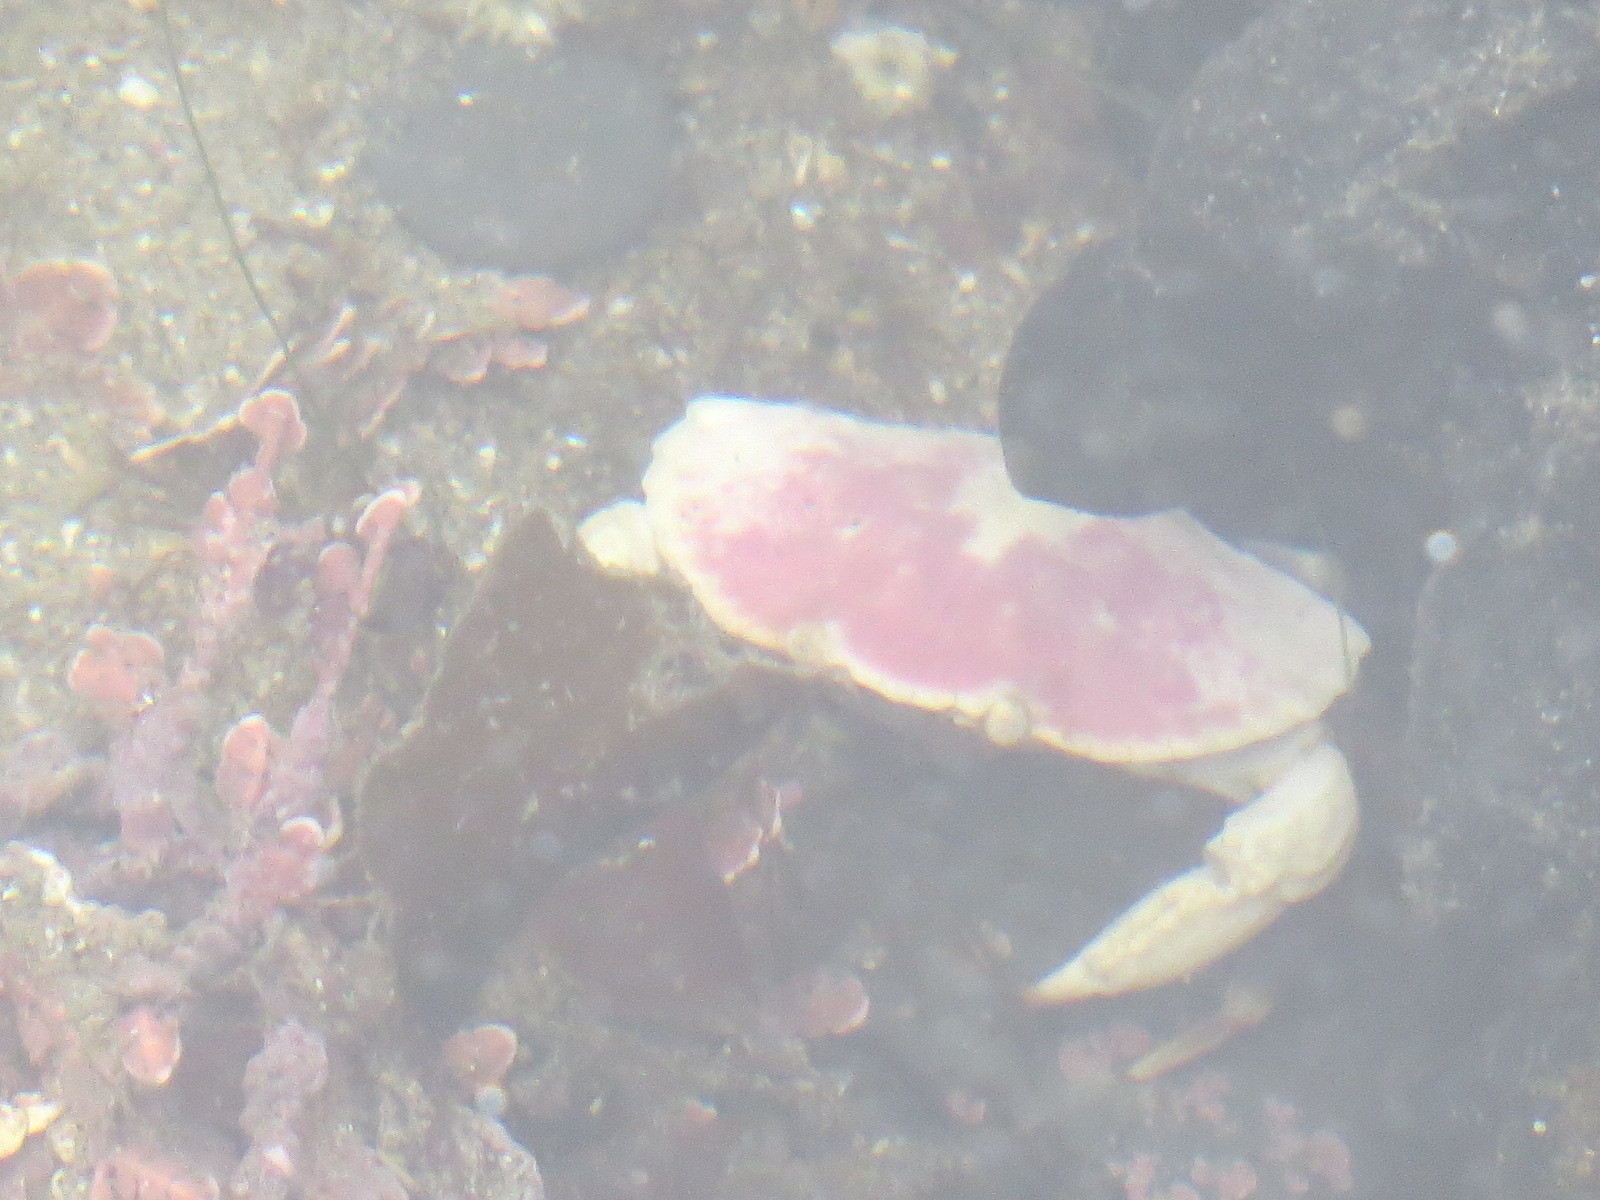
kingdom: Animalia
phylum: Arthropoda
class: Malacostraca
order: Decapoda
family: Cancridae
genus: Cancer
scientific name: Cancer productus
